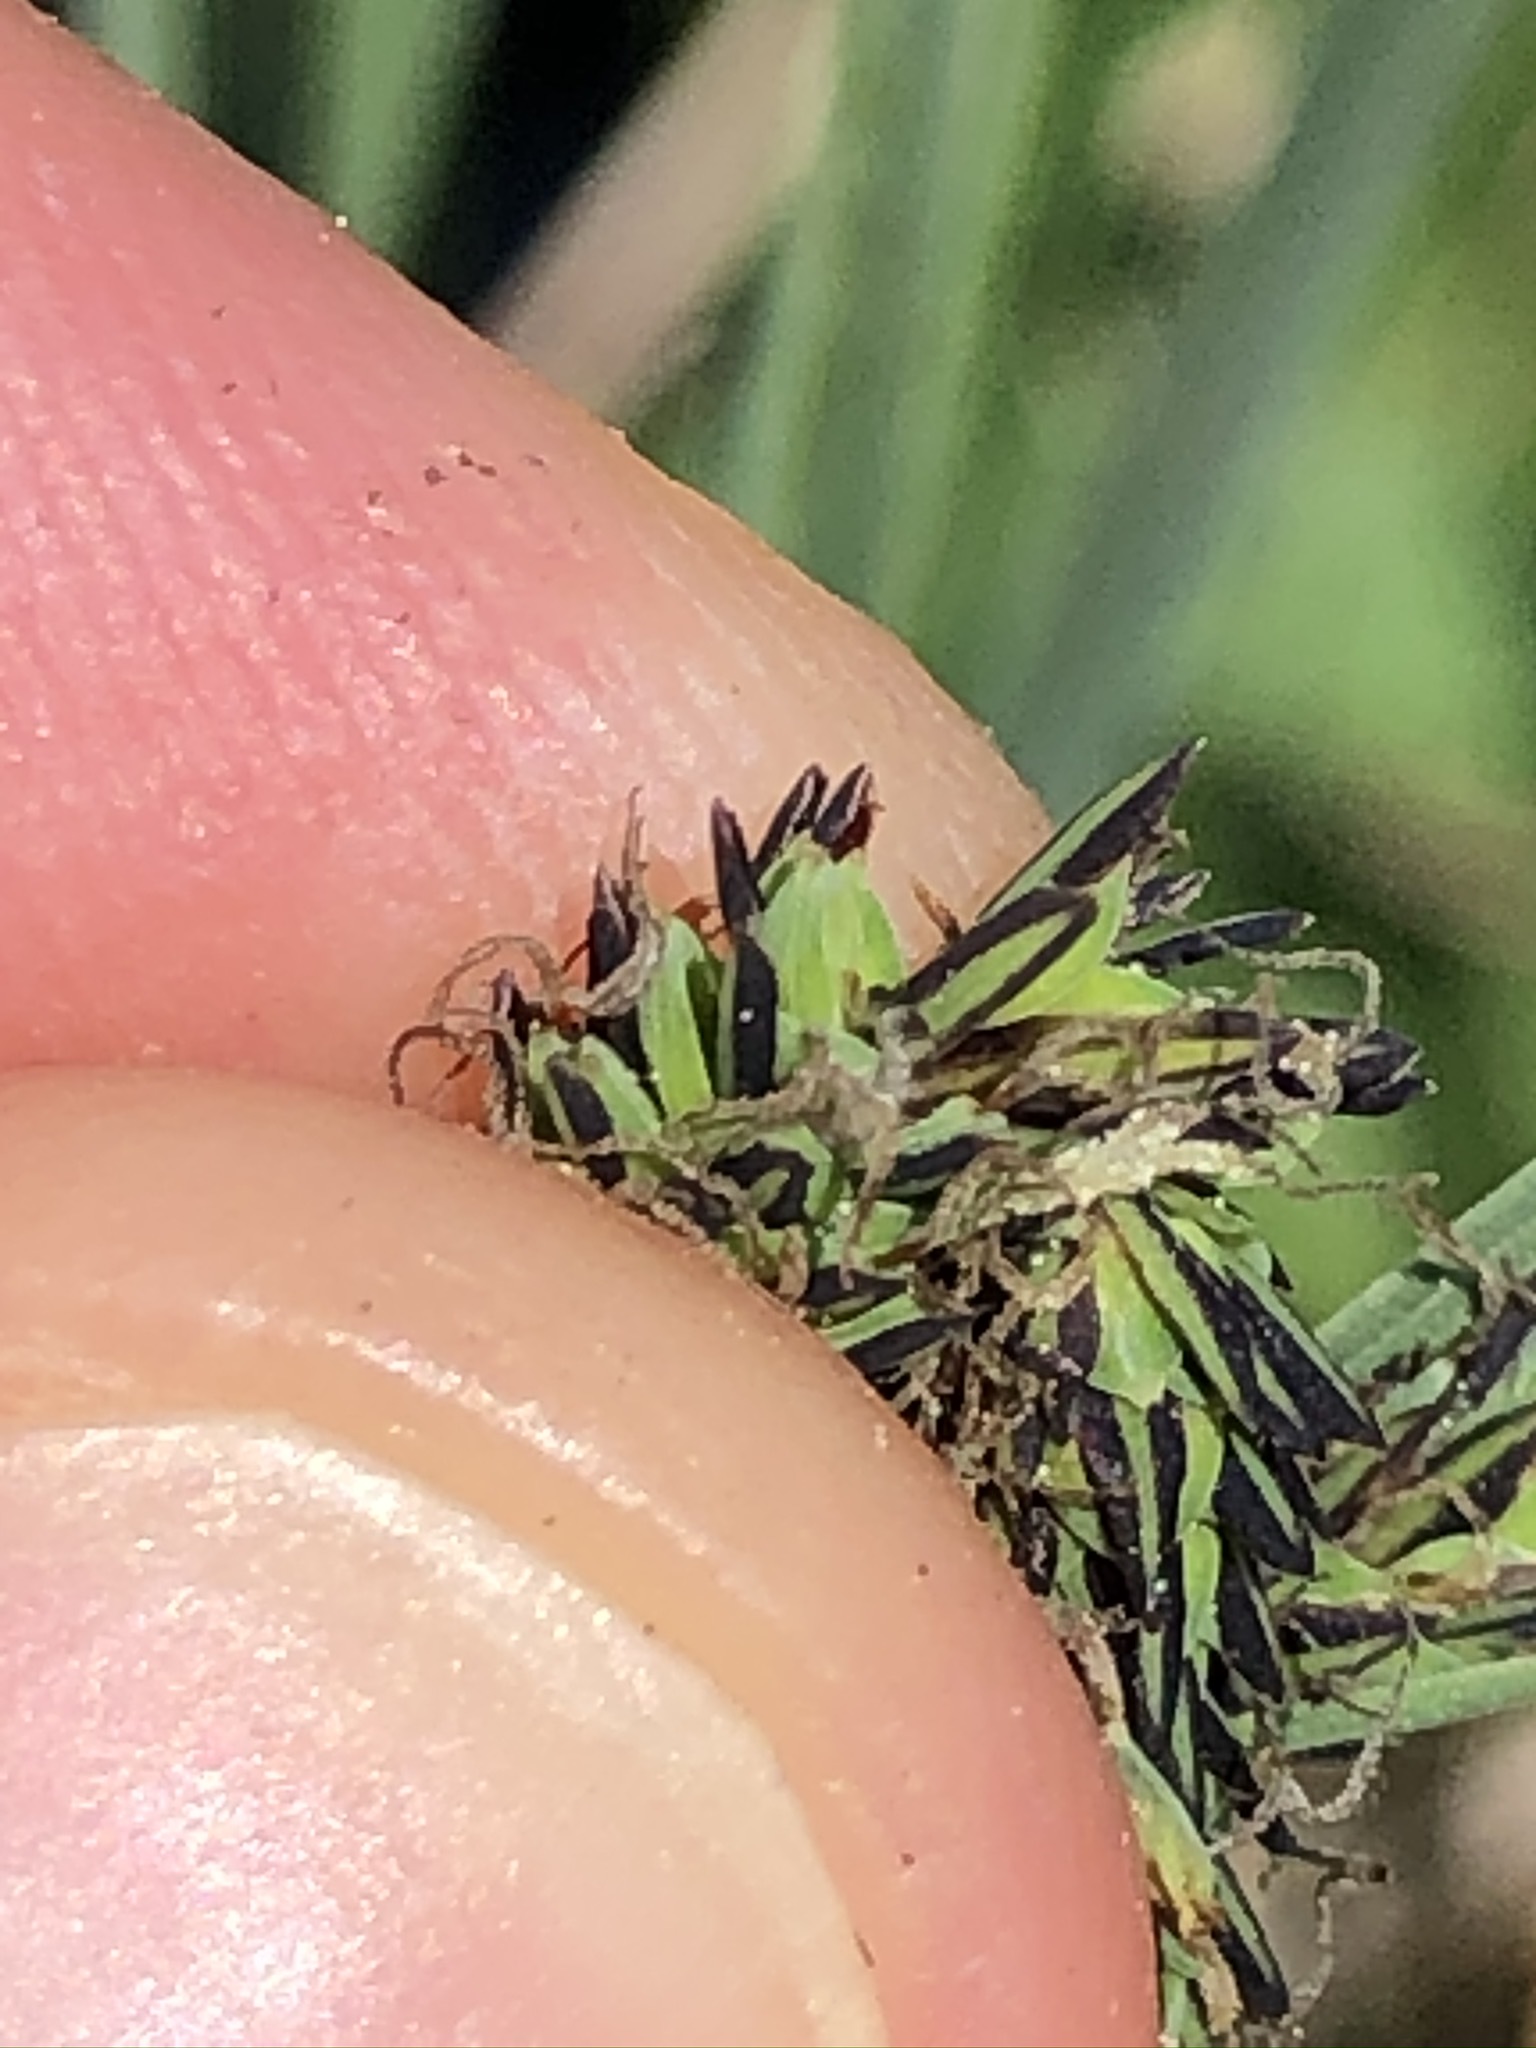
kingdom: Plantae
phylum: Tracheophyta
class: Liliopsida
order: Poales
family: Cyperaceae
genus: Carex
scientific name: Carex acuta
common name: Slender tufted-sedge
